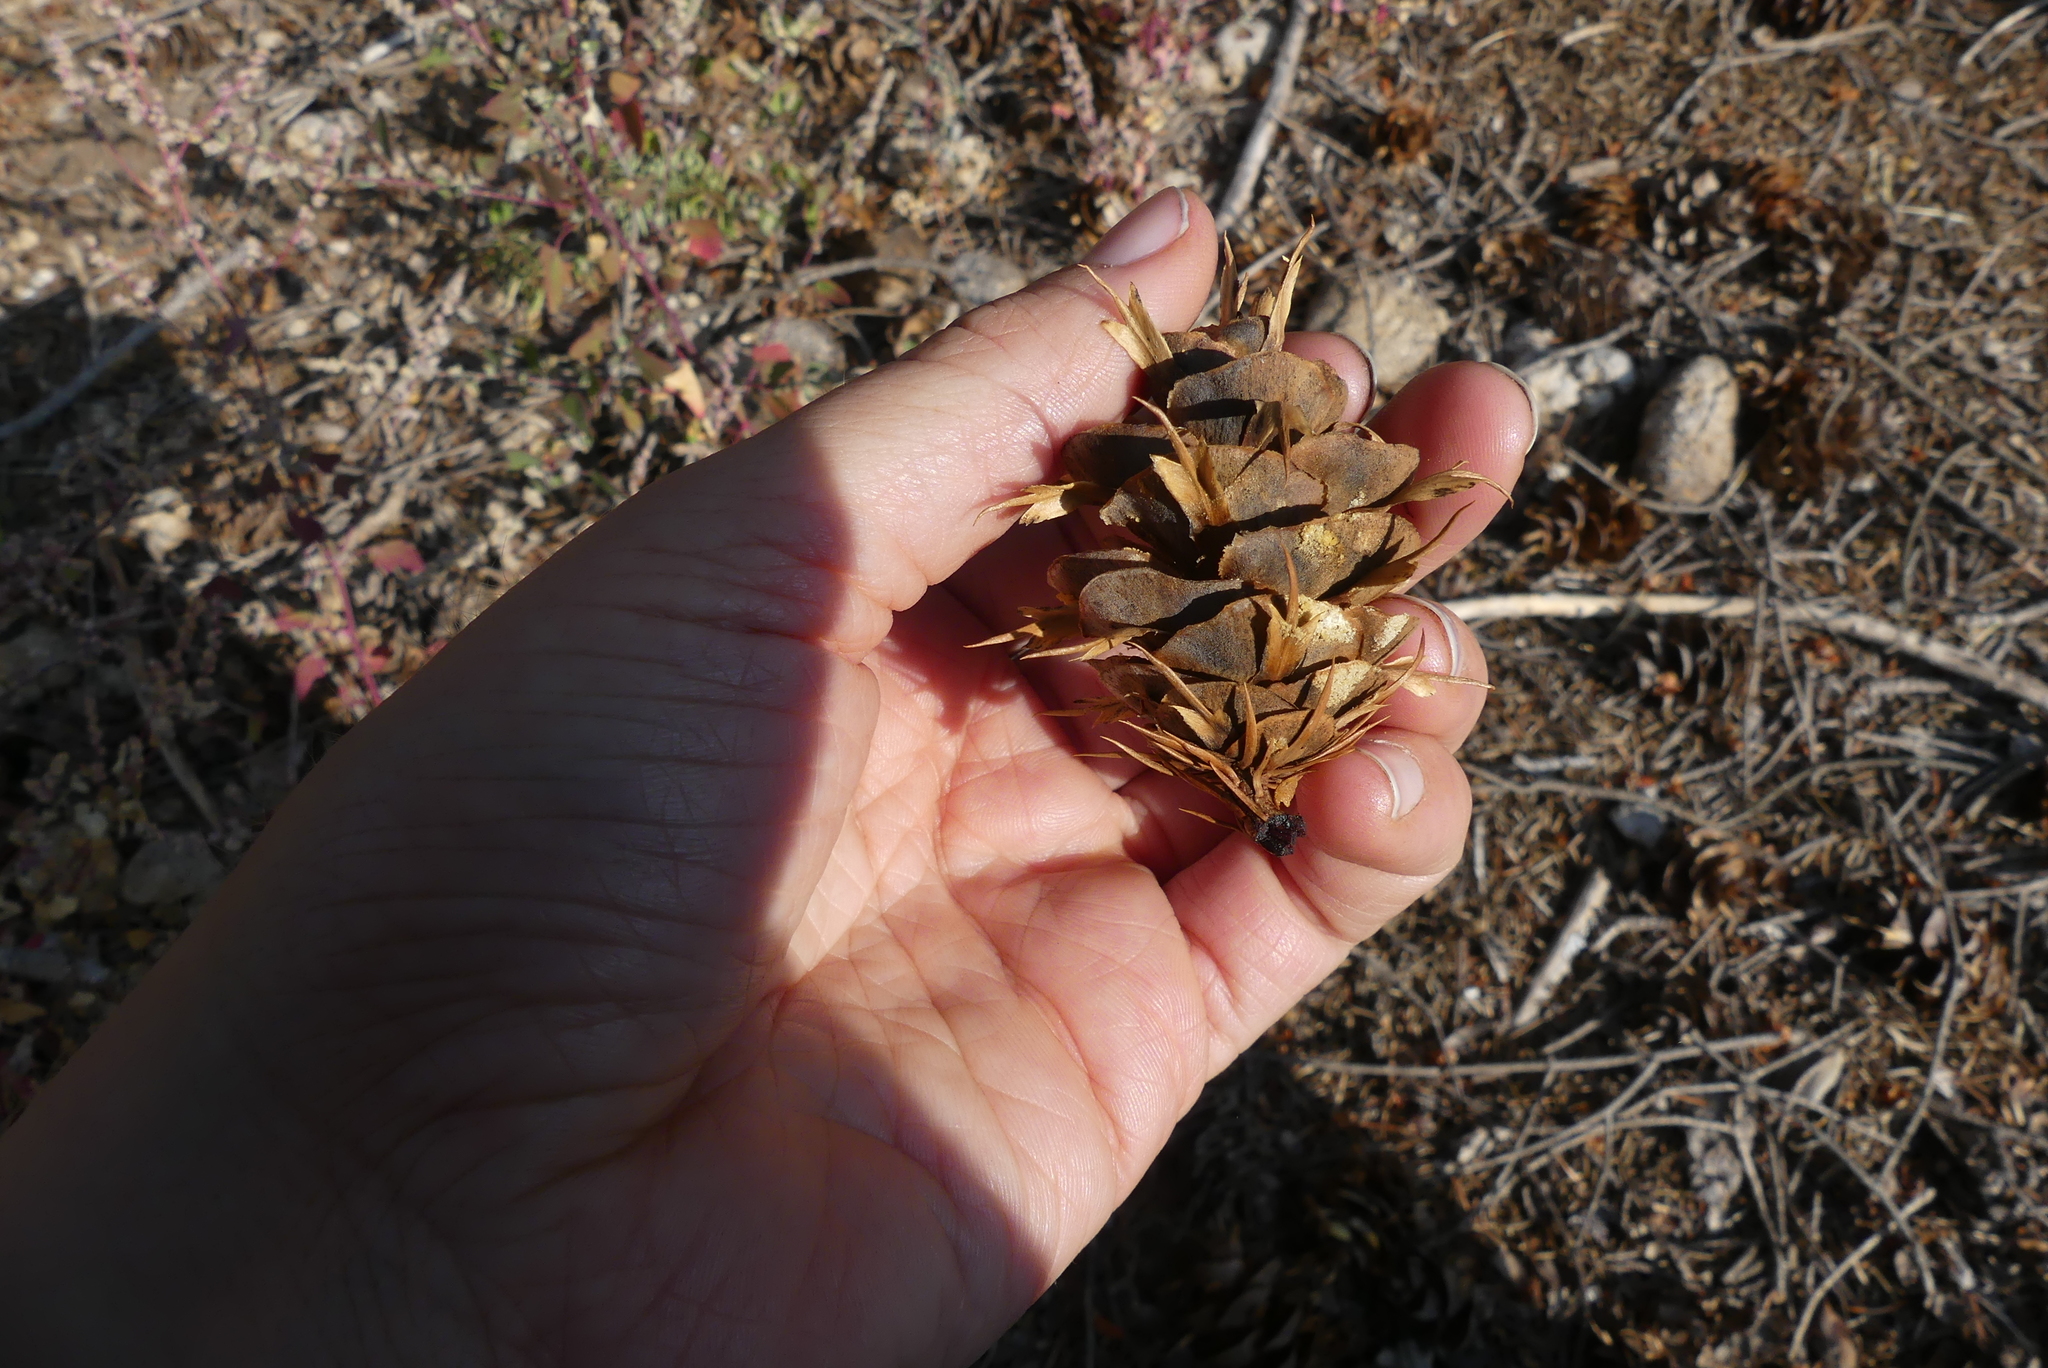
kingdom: Plantae
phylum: Tracheophyta
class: Pinopsida
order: Pinales
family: Pinaceae
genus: Pseudotsuga
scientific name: Pseudotsuga menziesii
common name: Douglas fir
